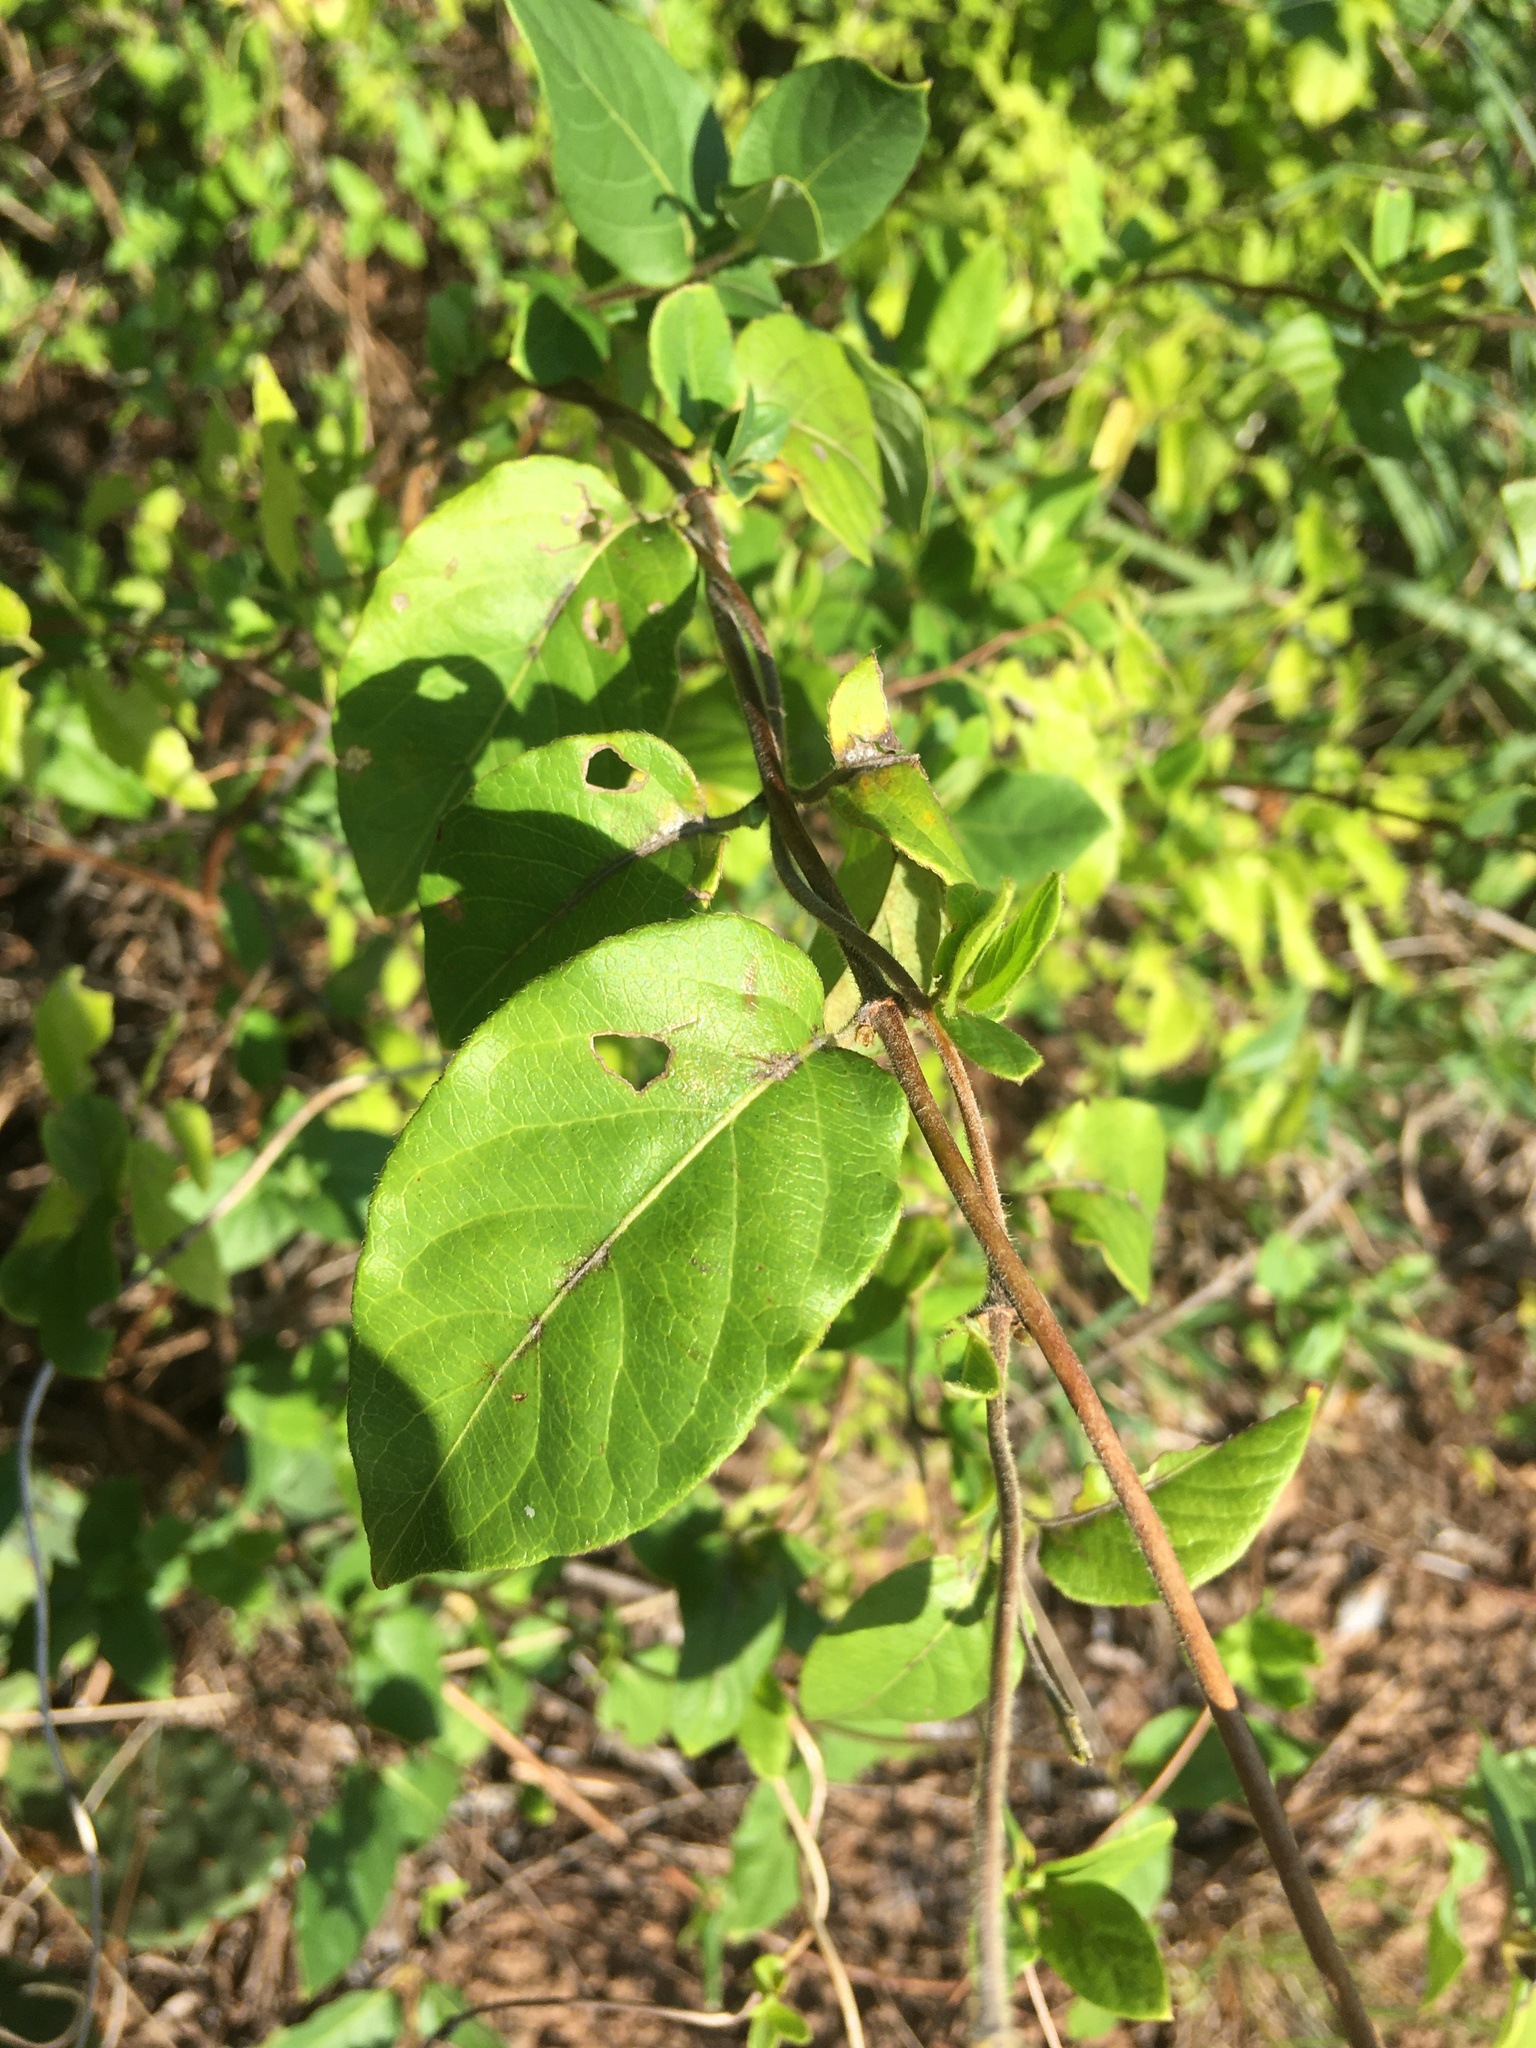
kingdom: Plantae
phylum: Tracheophyta
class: Magnoliopsida
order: Dipsacales
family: Caprifoliaceae
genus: Lonicera
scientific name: Lonicera japonica
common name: Japanese honeysuckle
